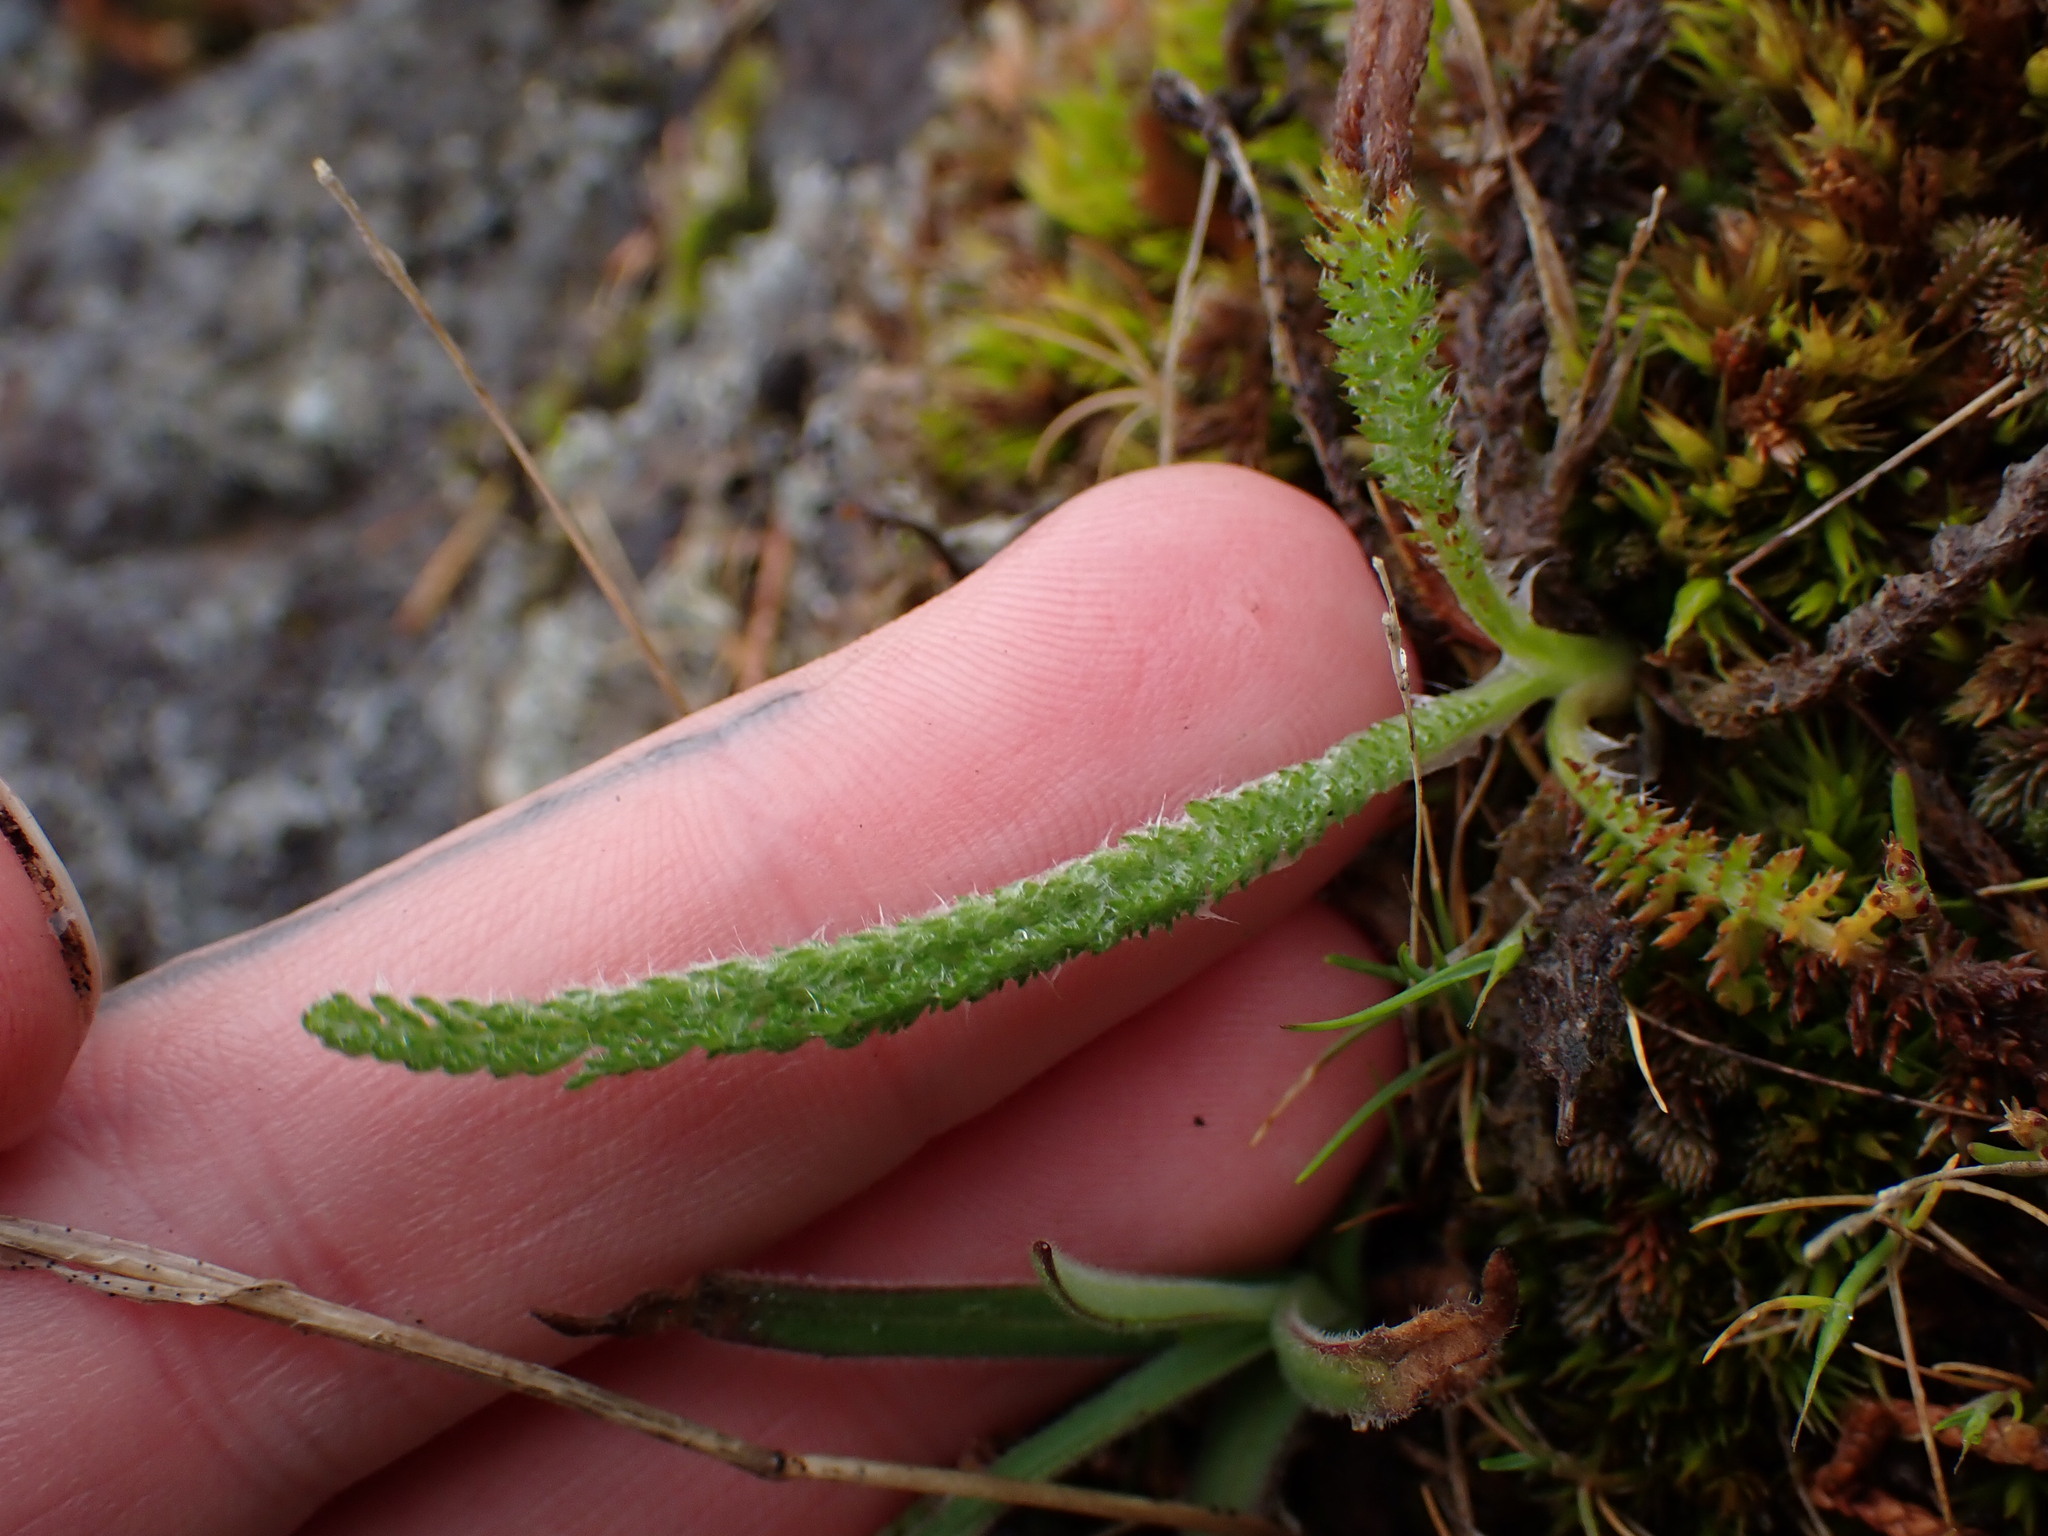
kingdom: Plantae
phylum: Tracheophyta
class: Magnoliopsida
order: Asterales
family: Asteraceae
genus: Achillea
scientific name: Achillea millefolium
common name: Yarrow
